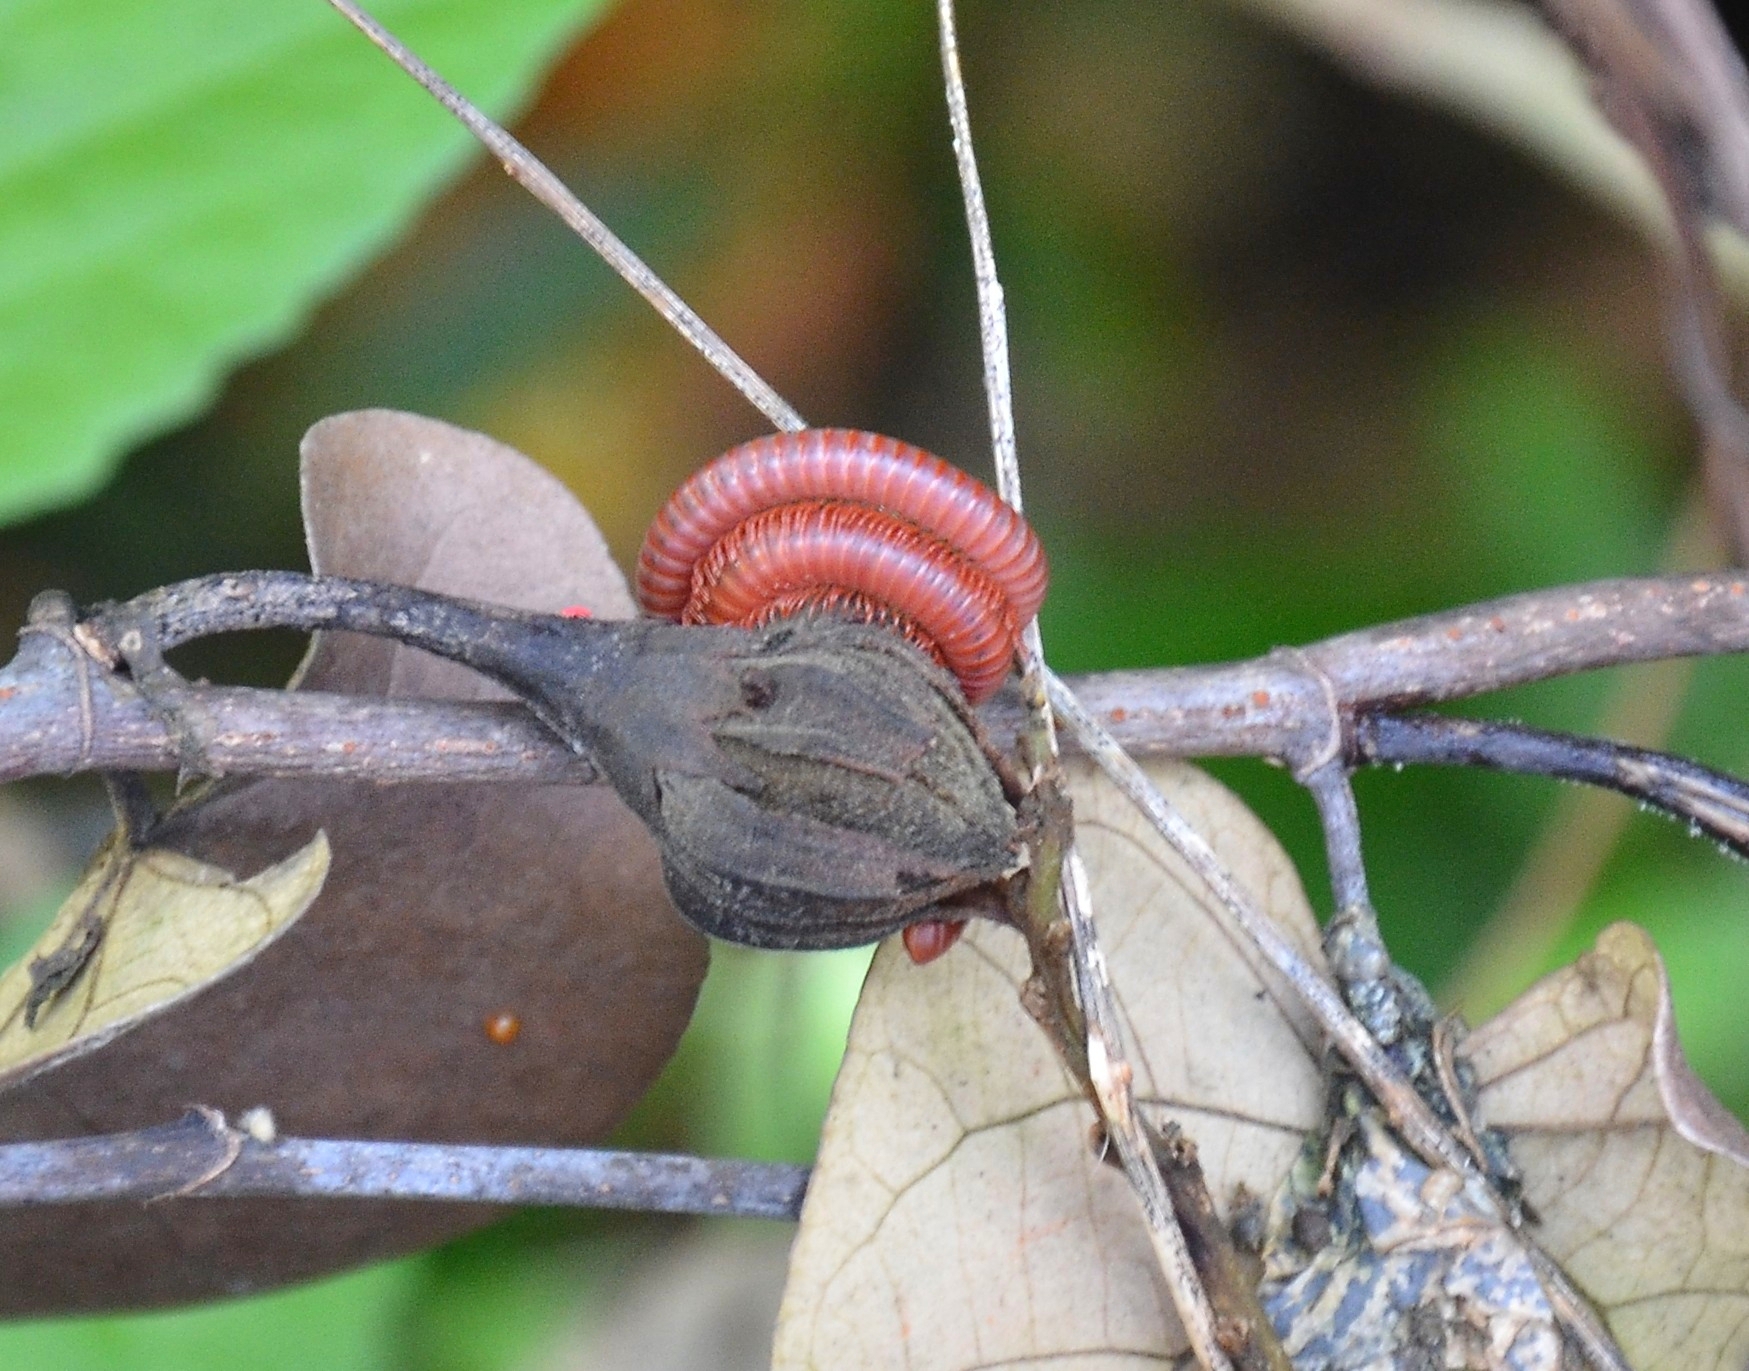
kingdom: Animalia
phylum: Arthropoda
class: Diplopoda
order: Spirobolida
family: Pachybolidae
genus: Trigoniulus
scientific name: Trigoniulus corallinus
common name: Millipede
